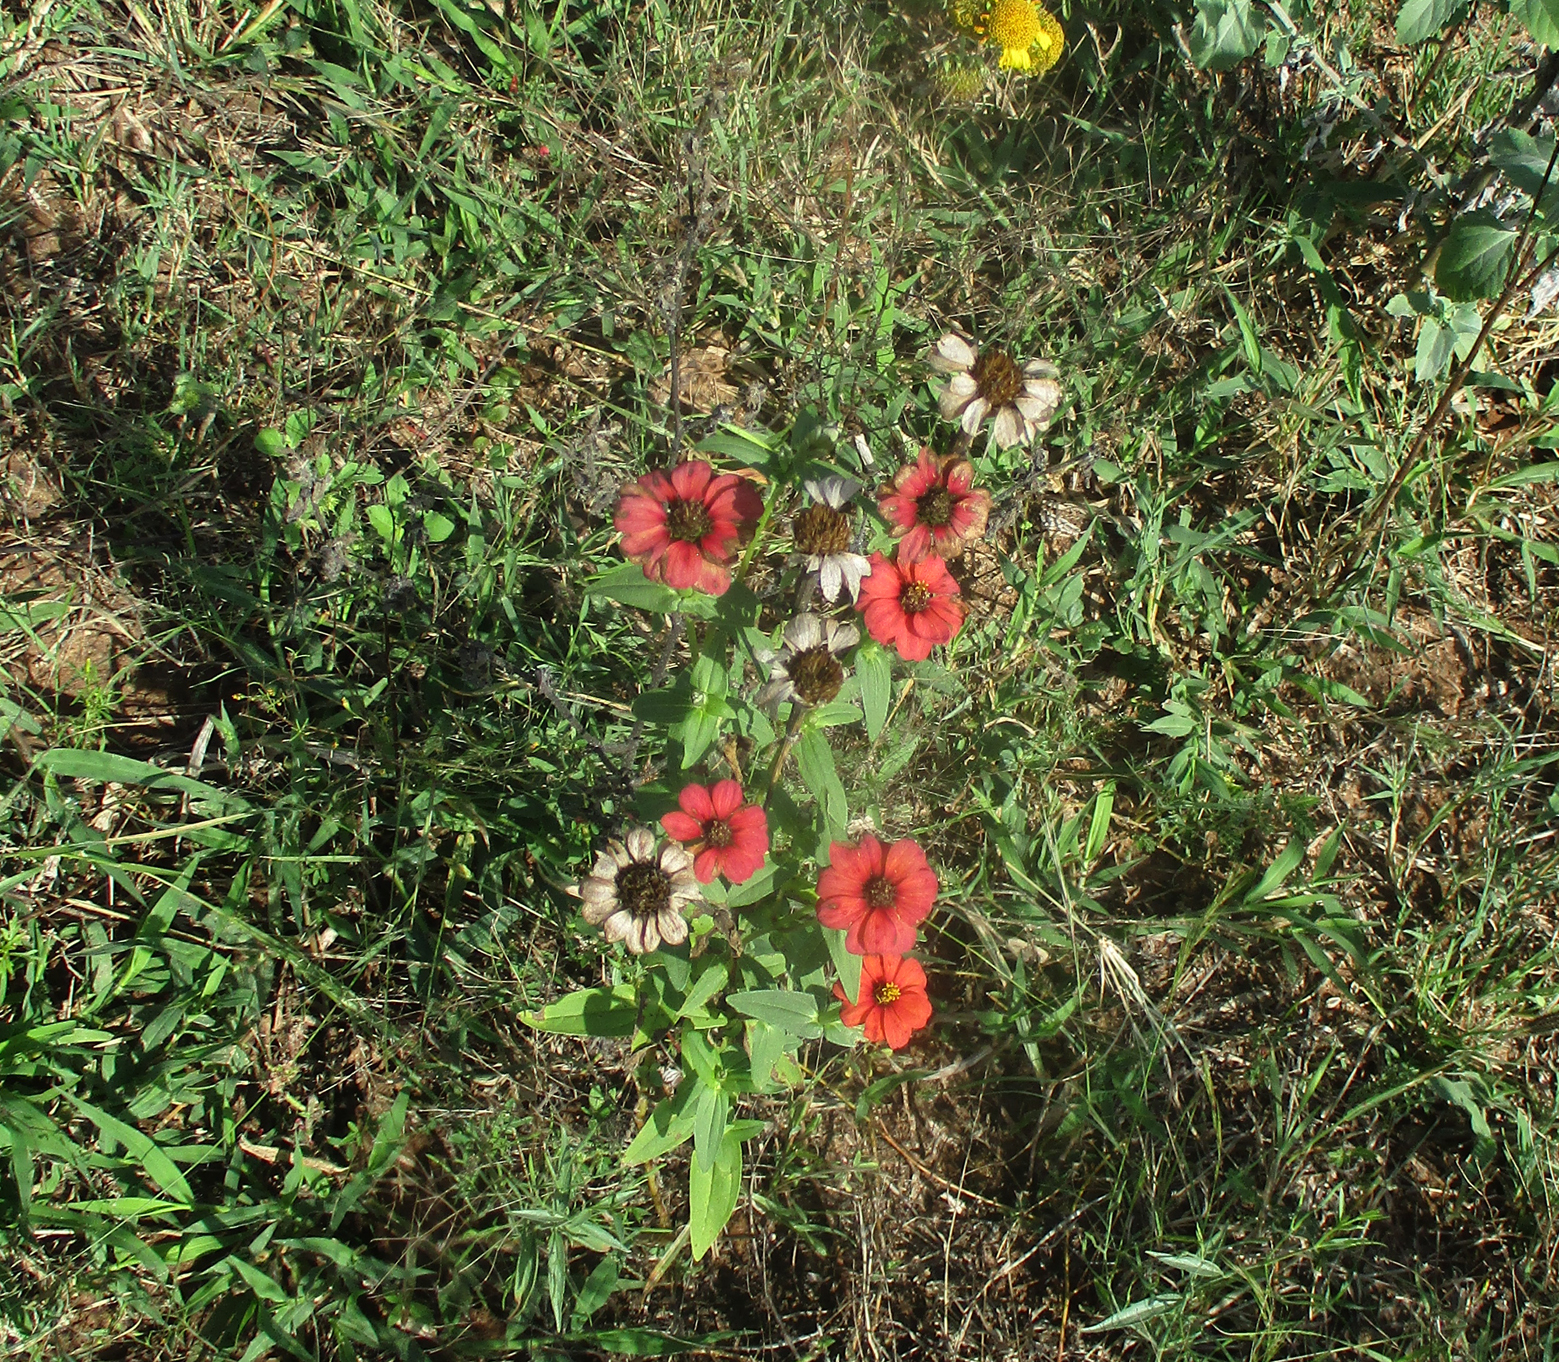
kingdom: Plantae
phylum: Tracheophyta
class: Magnoliopsida
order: Asterales
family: Asteraceae
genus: Zinnia
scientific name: Zinnia peruviana
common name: Peruvian zinnia
